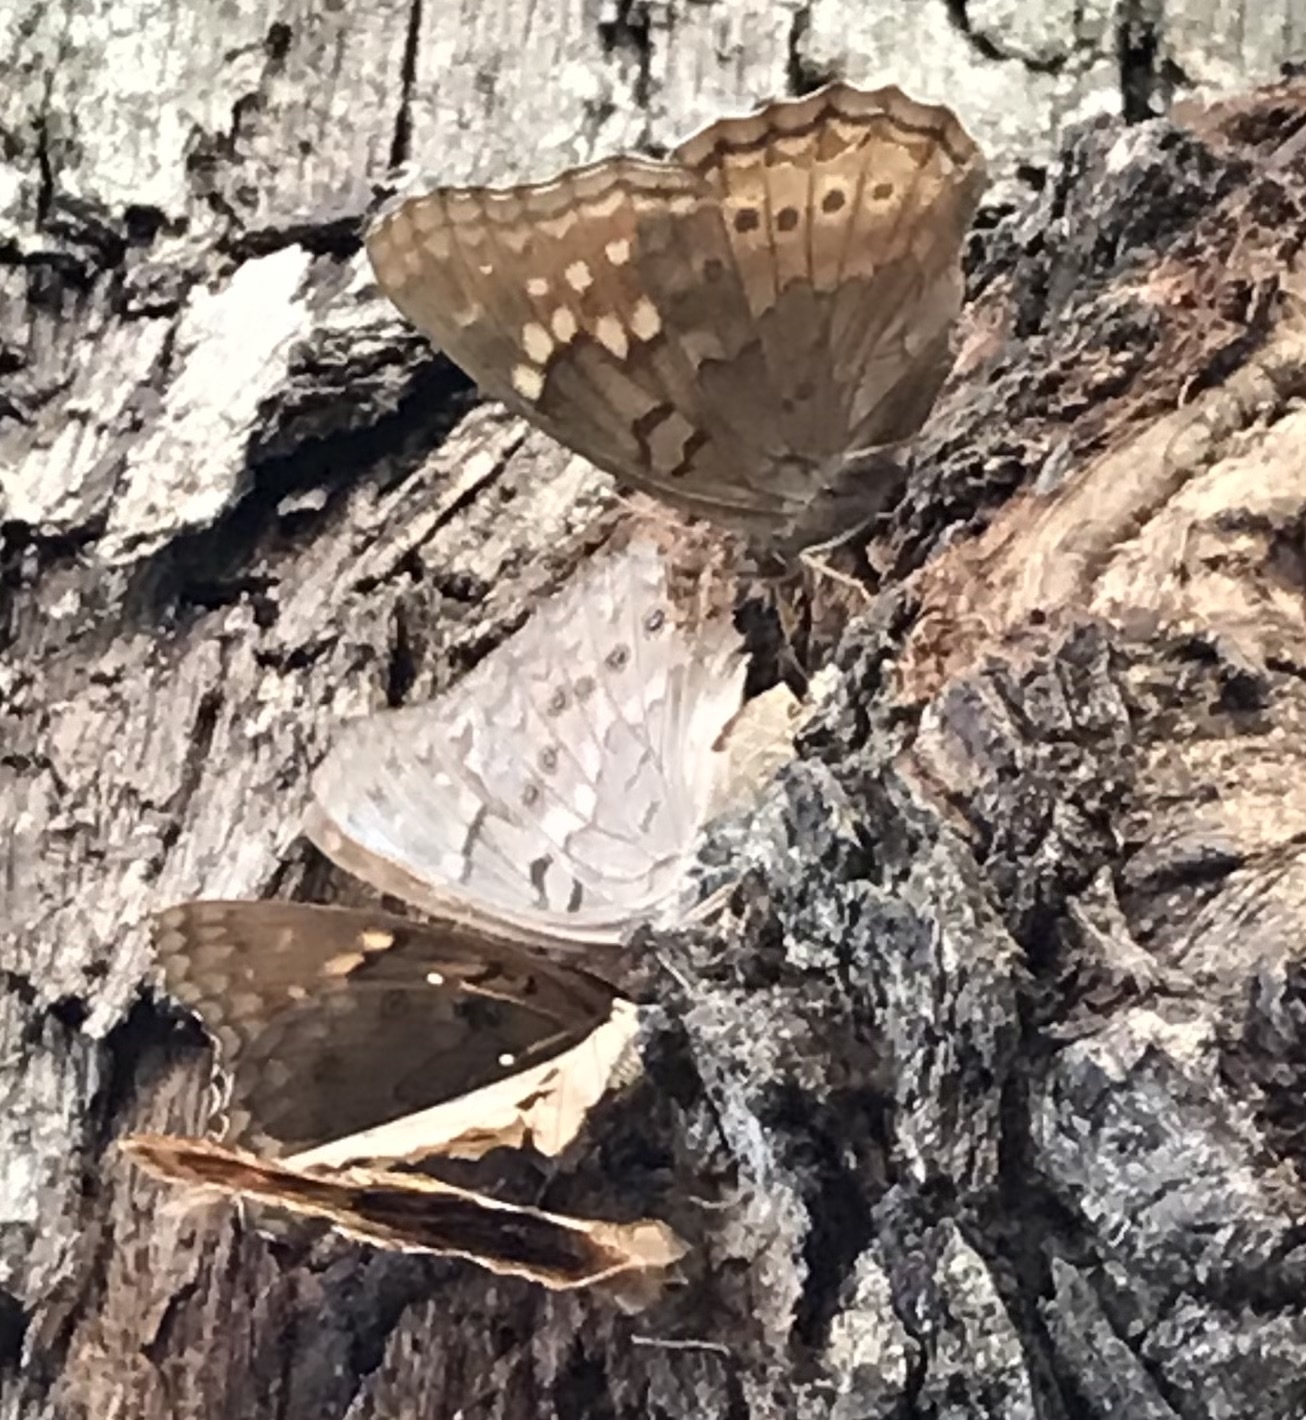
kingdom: Animalia
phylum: Arthropoda
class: Insecta
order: Lepidoptera
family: Nymphalidae
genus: Asterocampa
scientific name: Asterocampa clyton
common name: Tawny emperor
